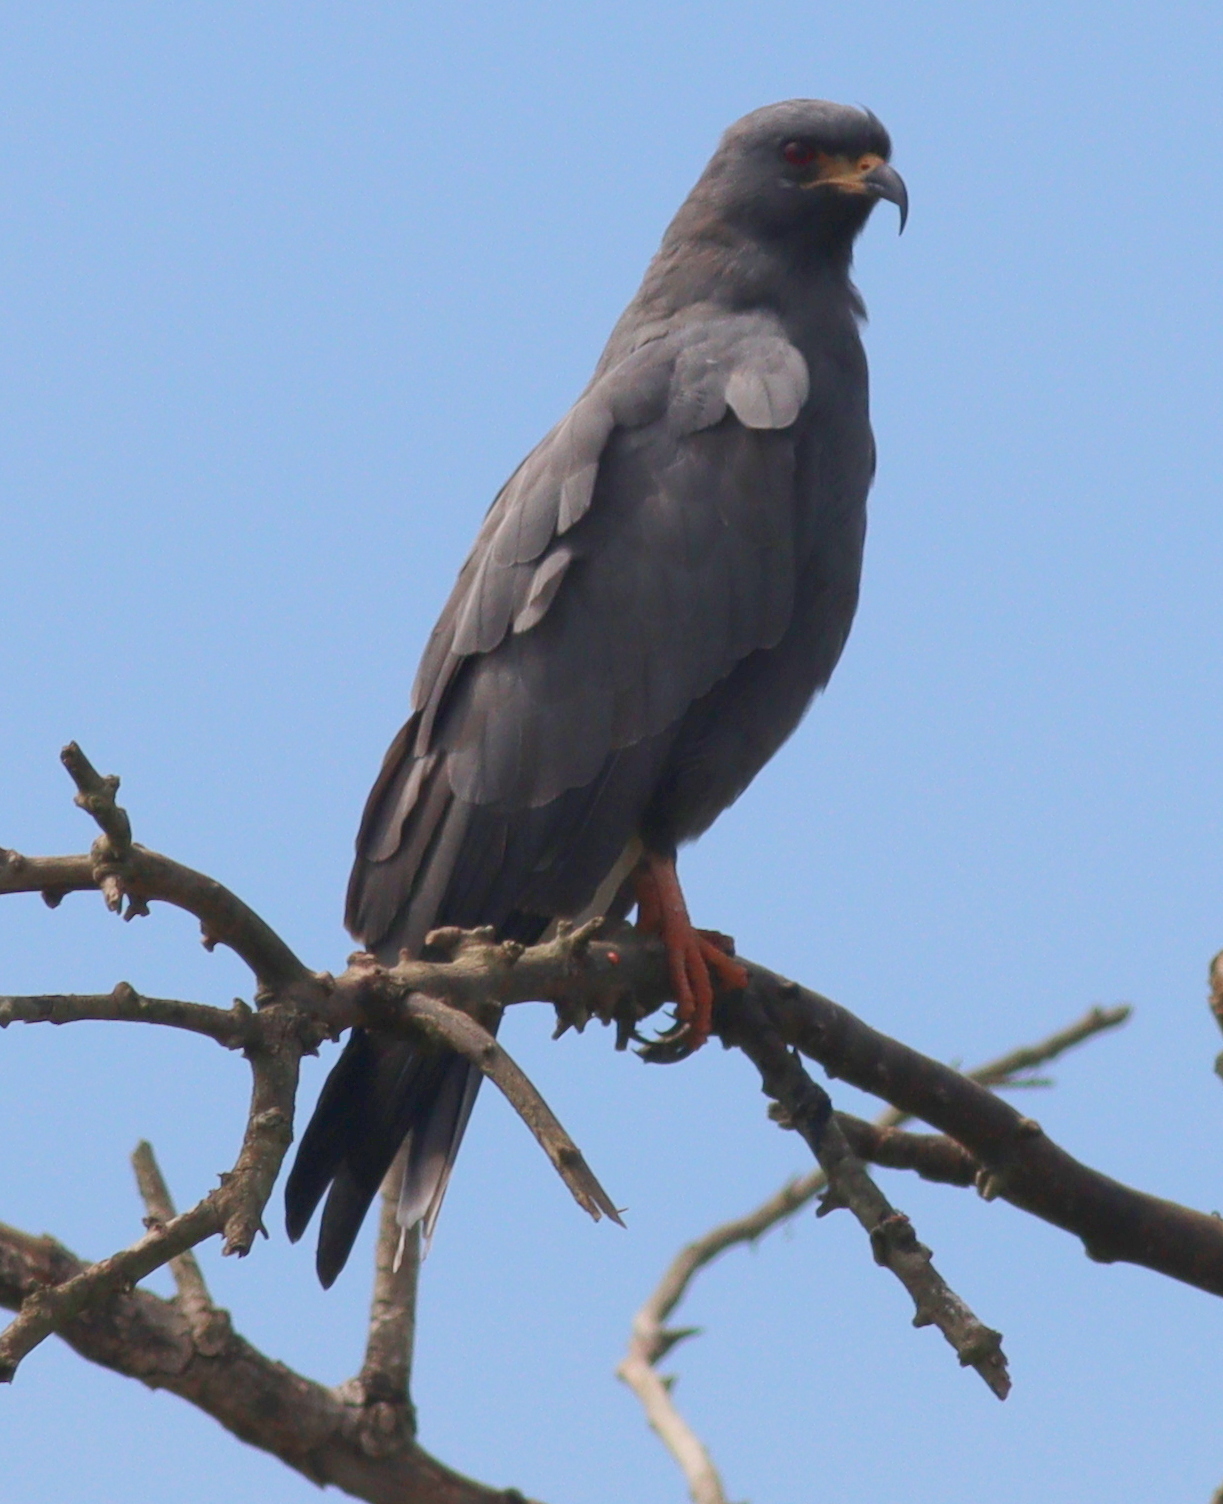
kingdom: Animalia
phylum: Chordata
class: Aves
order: Accipitriformes
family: Accipitridae
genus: Rostrhamus
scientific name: Rostrhamus sociabilis
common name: Snail kite
